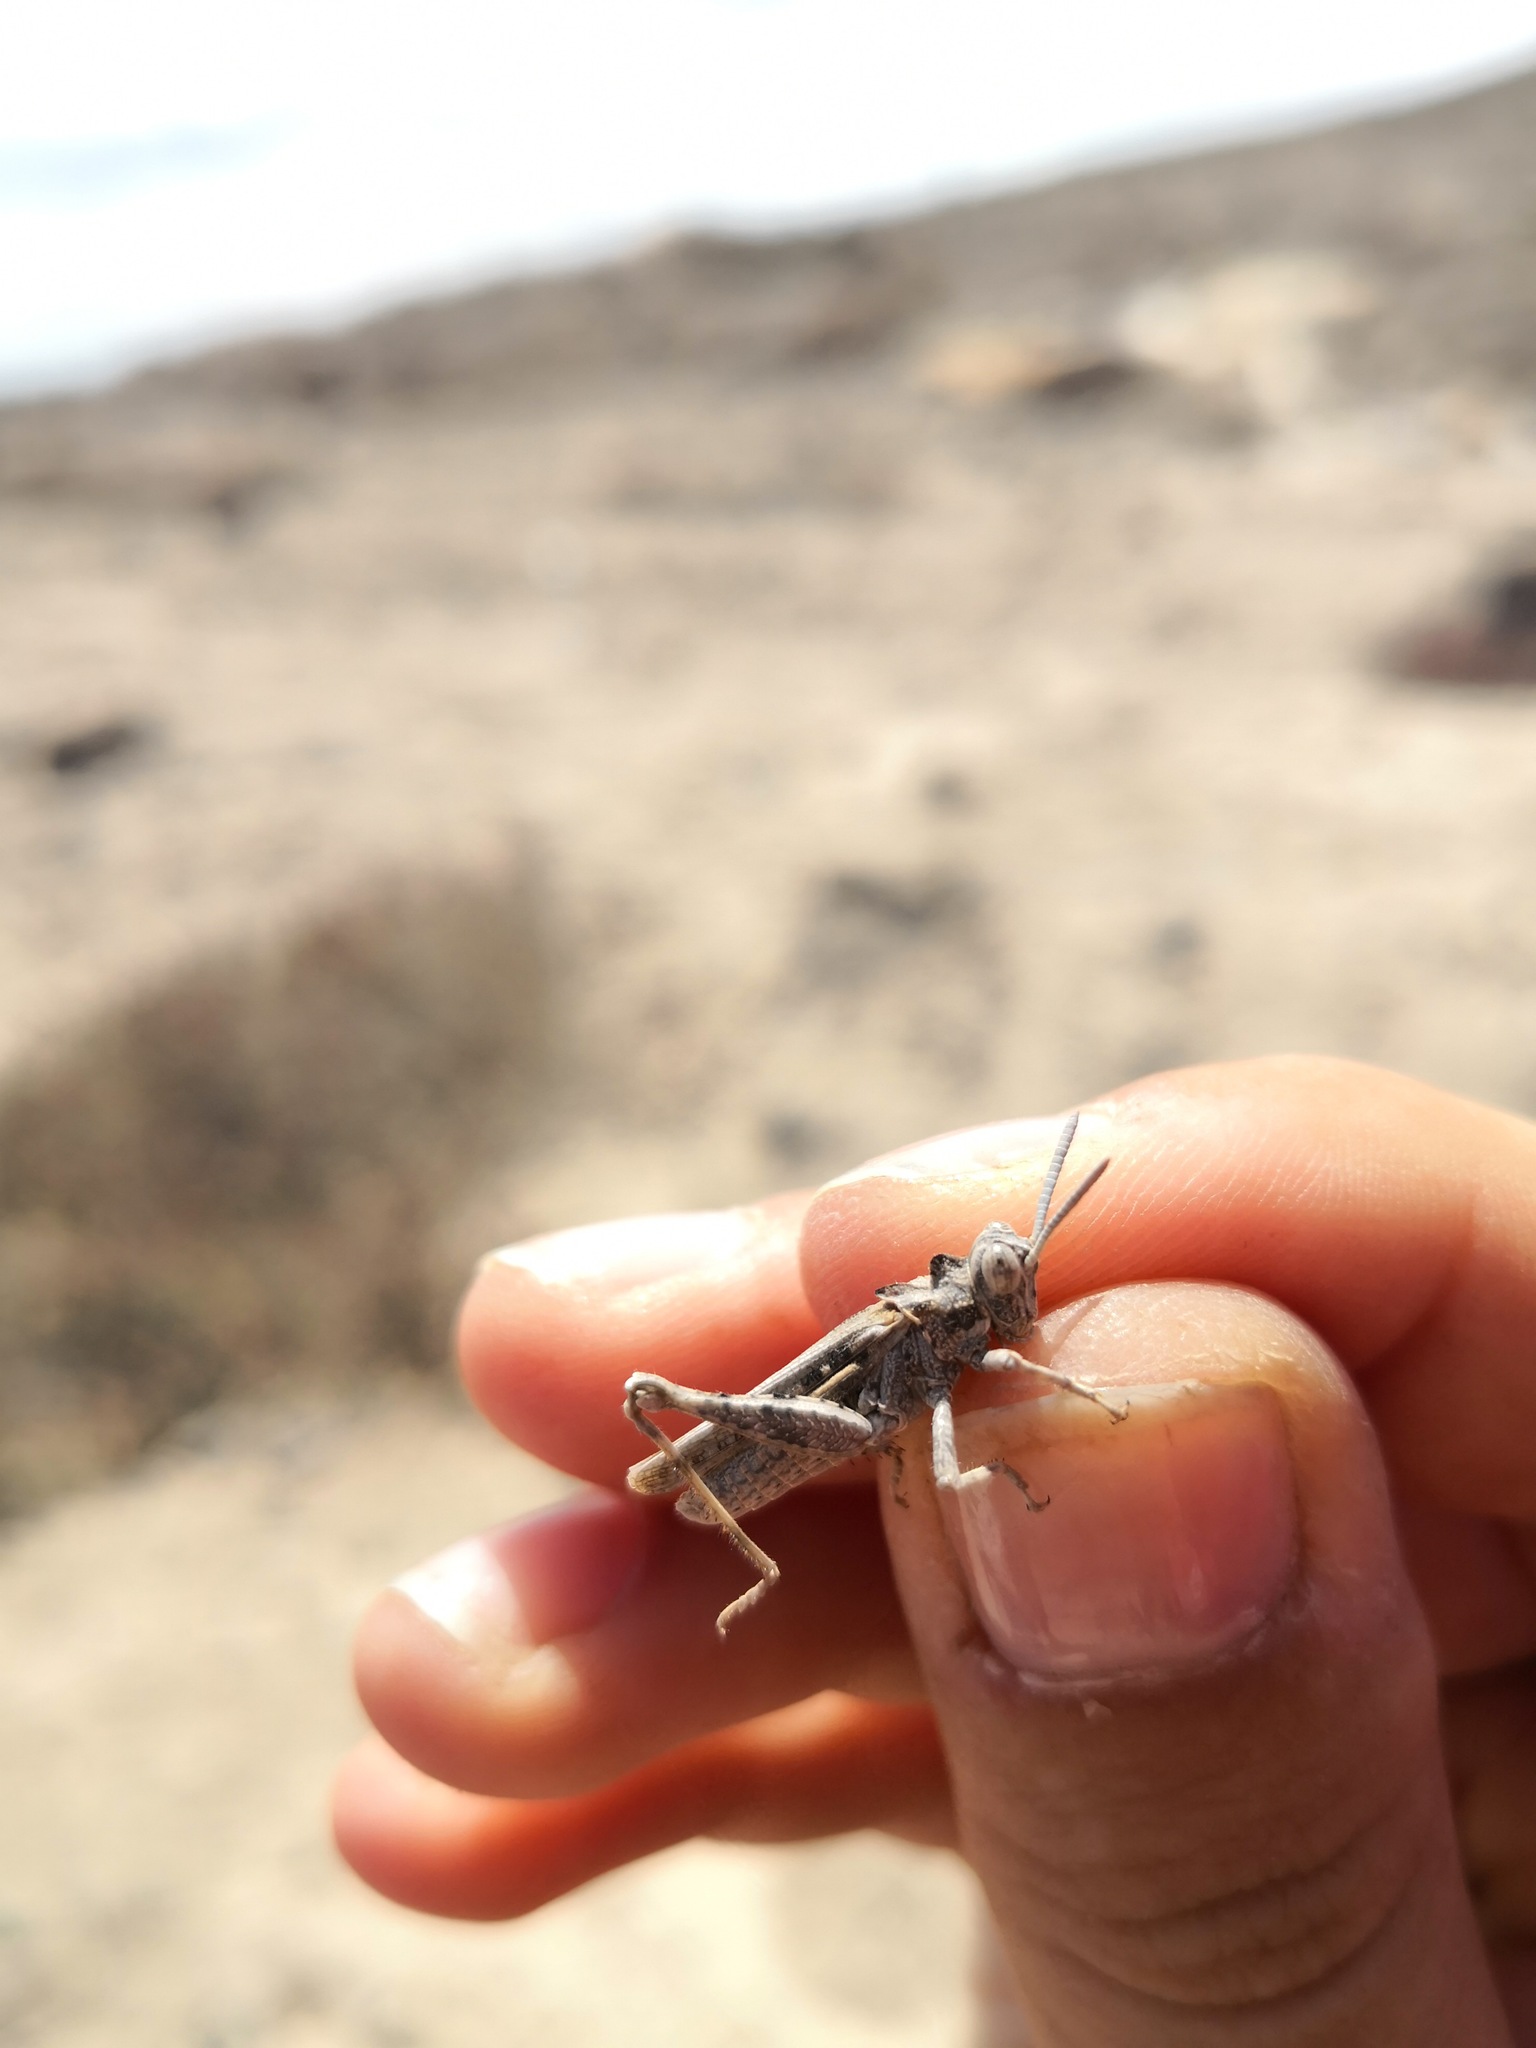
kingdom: Animalia
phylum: Arthropoda
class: Insecta
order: Orthoptera
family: Dericorythidae
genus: Dericorys
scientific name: Dericorys minutus
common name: Gran canaria crested grasshopper
